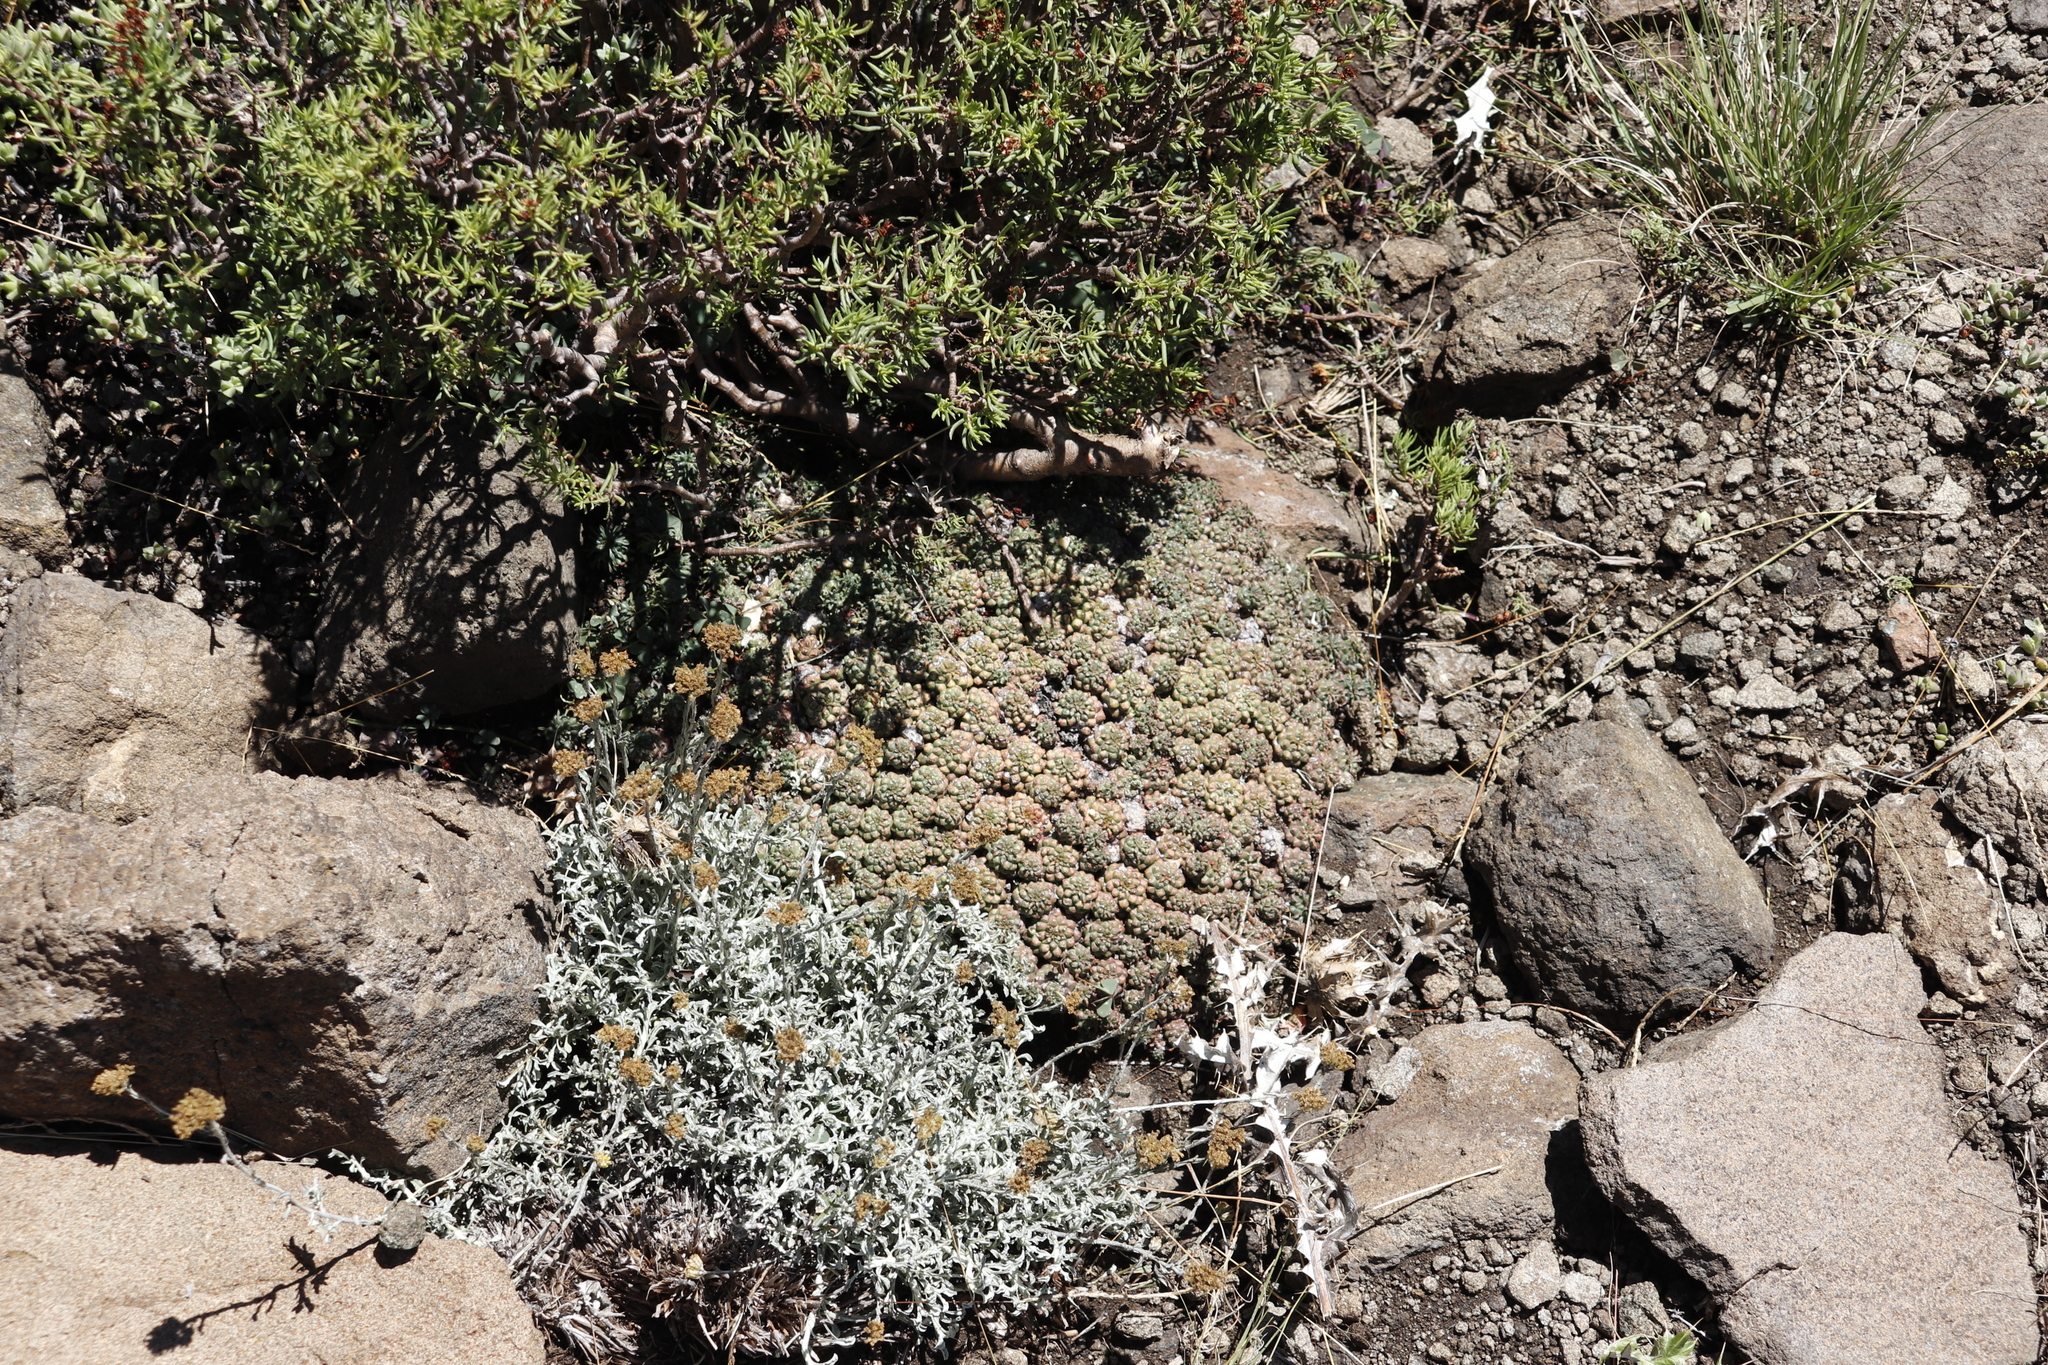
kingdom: Plantae
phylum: Tracheophyta
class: Magnoliopsida
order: Malpighiales
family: Euphorbiaceae
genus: Euphorbia
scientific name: Euphorbia clavarioides
